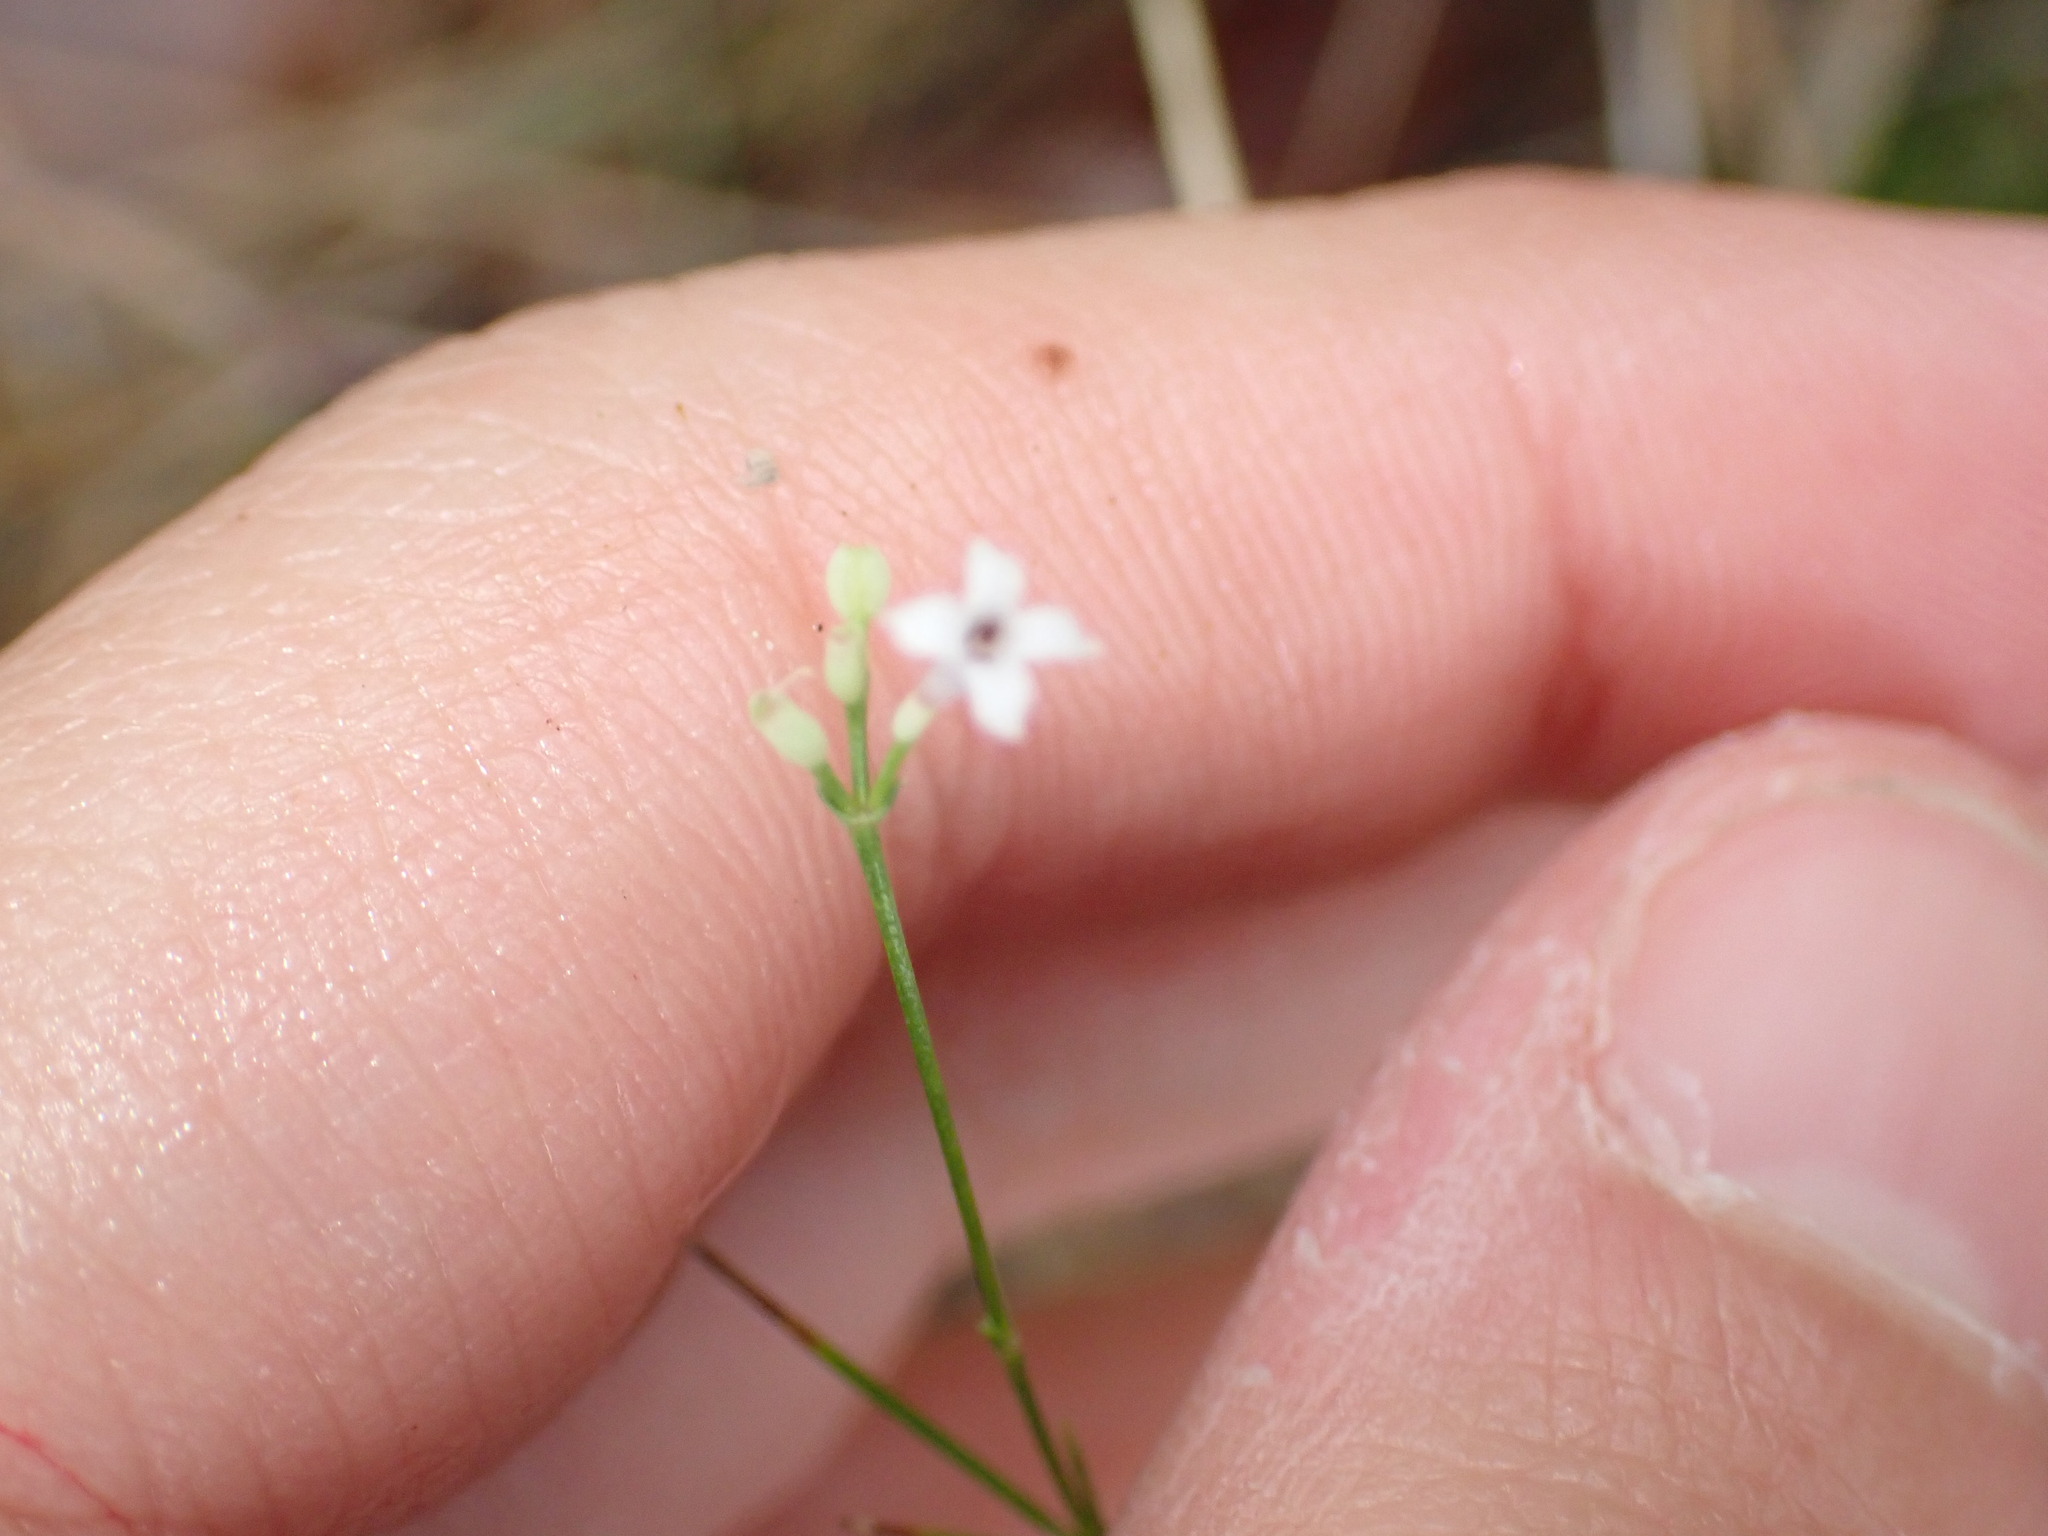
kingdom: Plantae
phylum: Tracheophyta
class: Magnoliopsida
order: Gentianales
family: Rubiaceae
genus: Cynanchica
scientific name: Cynanchica pyrenaica
